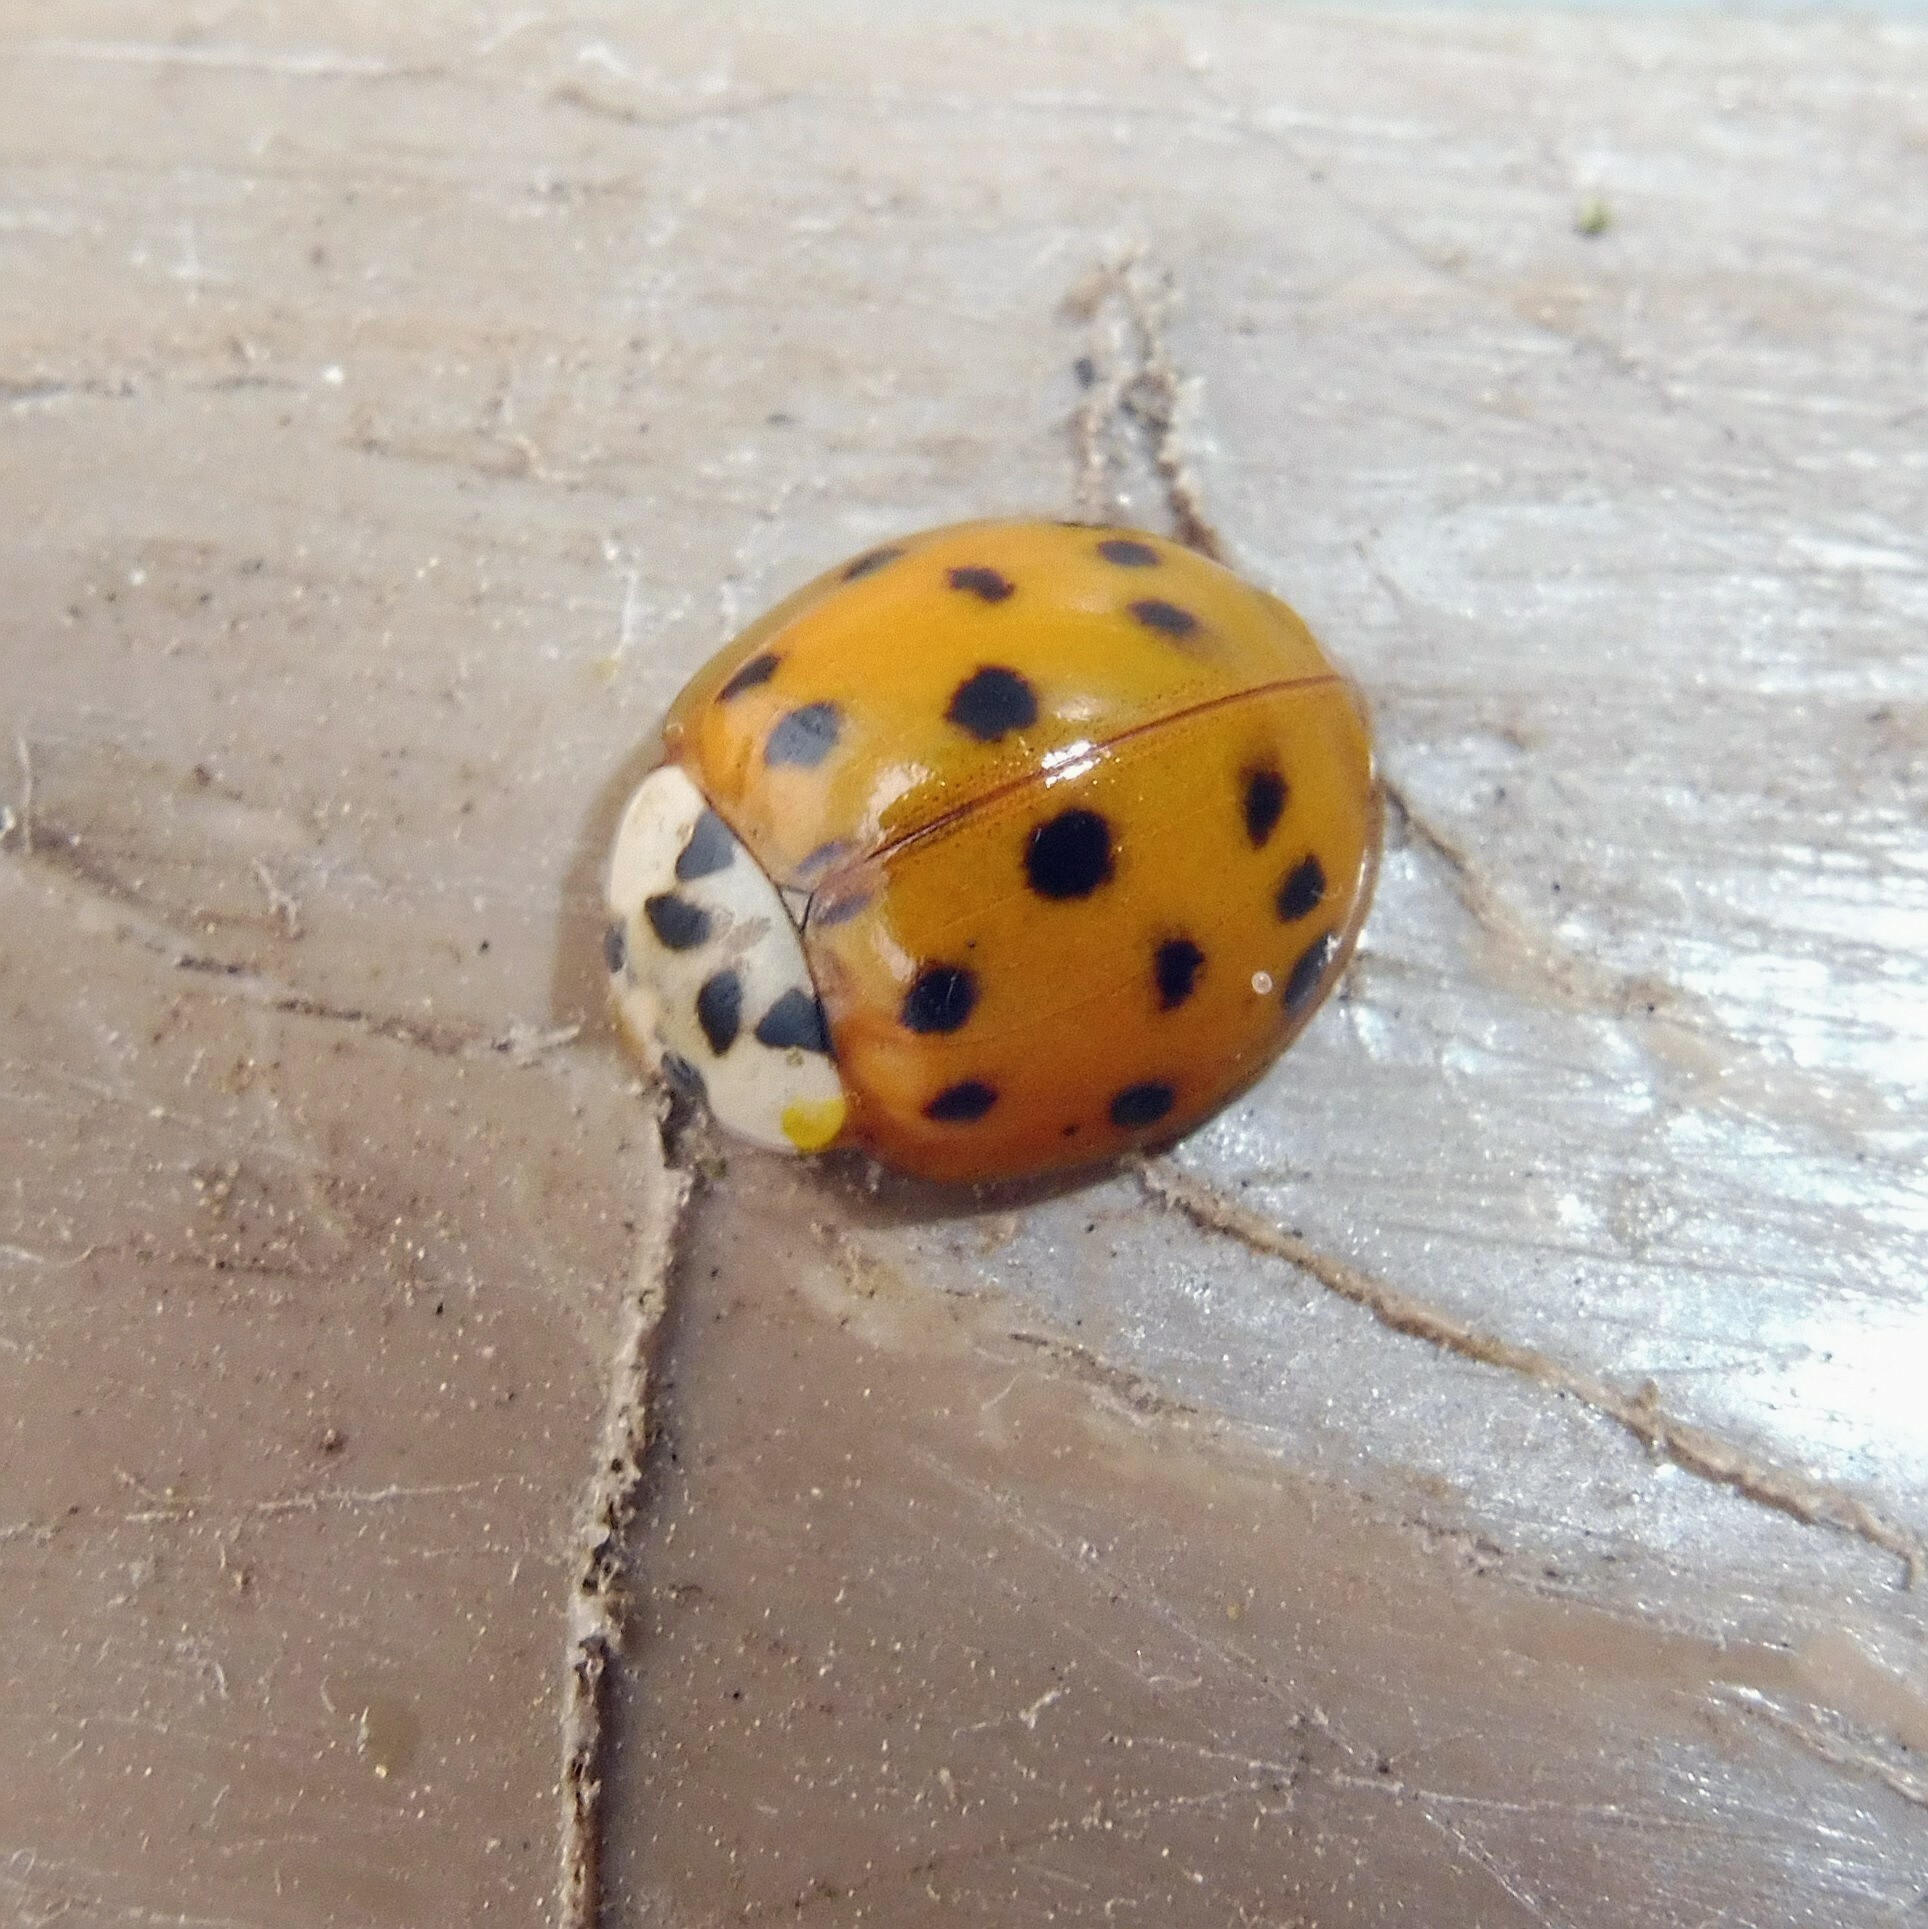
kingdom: Animalia
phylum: Arthropoda
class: Insecta
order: Coleoptera
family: Coccinellidae
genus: Harmonia
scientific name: Harmonia axyridis
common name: Harlequin ladybird
